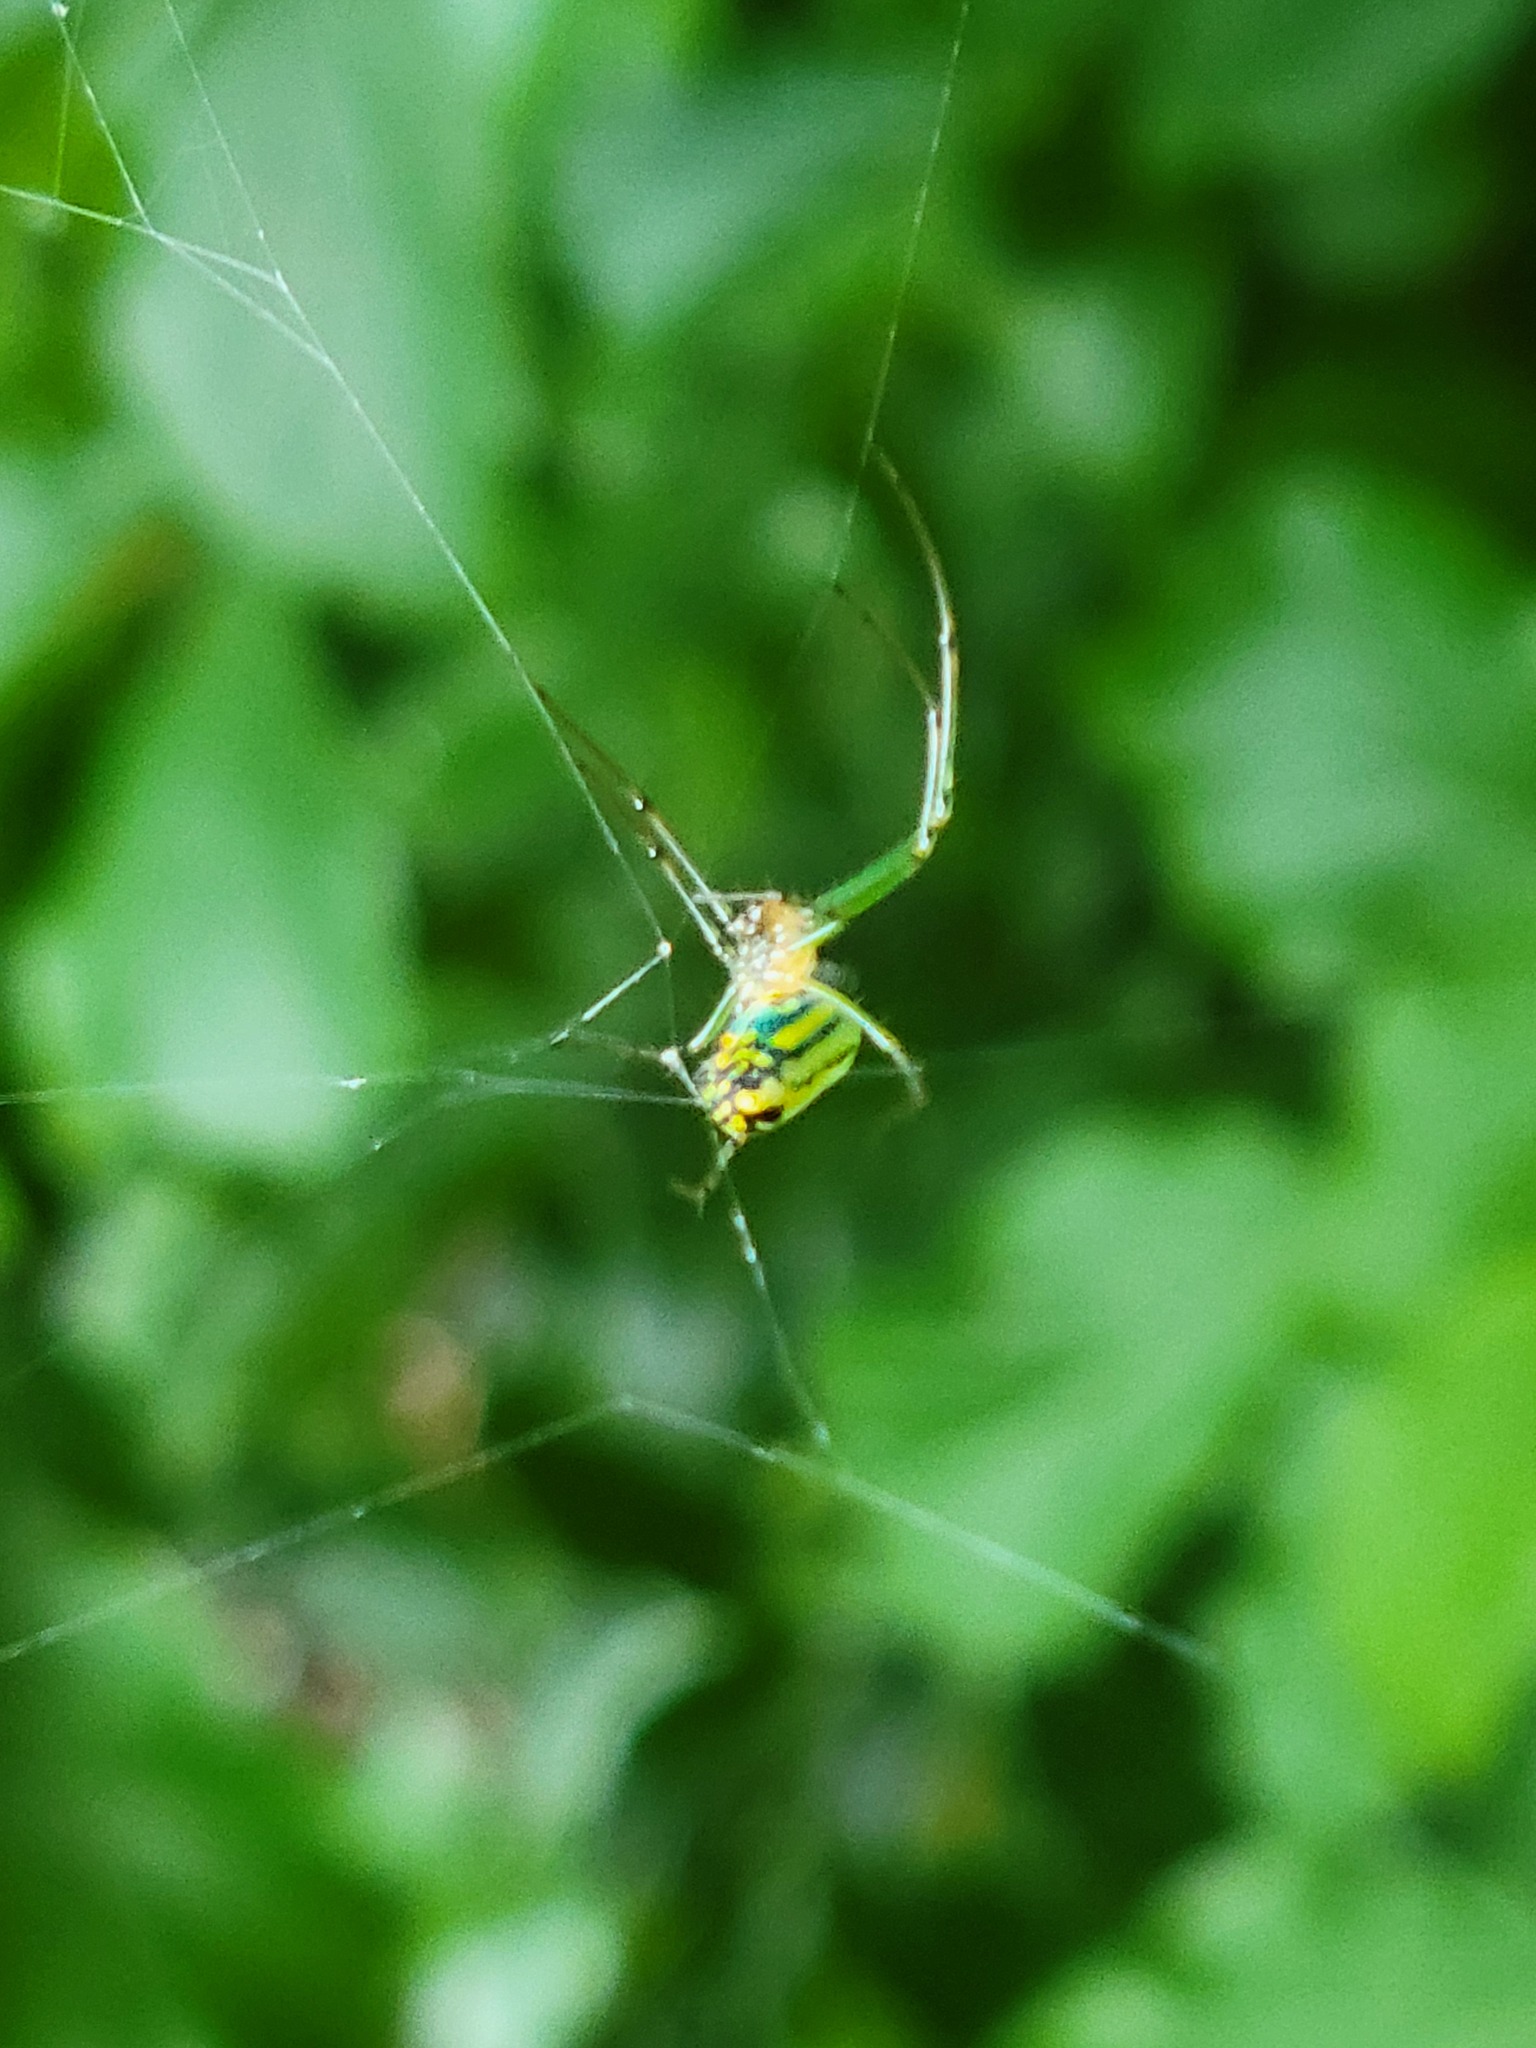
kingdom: Animalia
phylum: Arthropoda
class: Arachnida
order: Araneae
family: Tetragnathidae
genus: Leucauge
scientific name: Leucauge venusta
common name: Longjawed orb weavers
